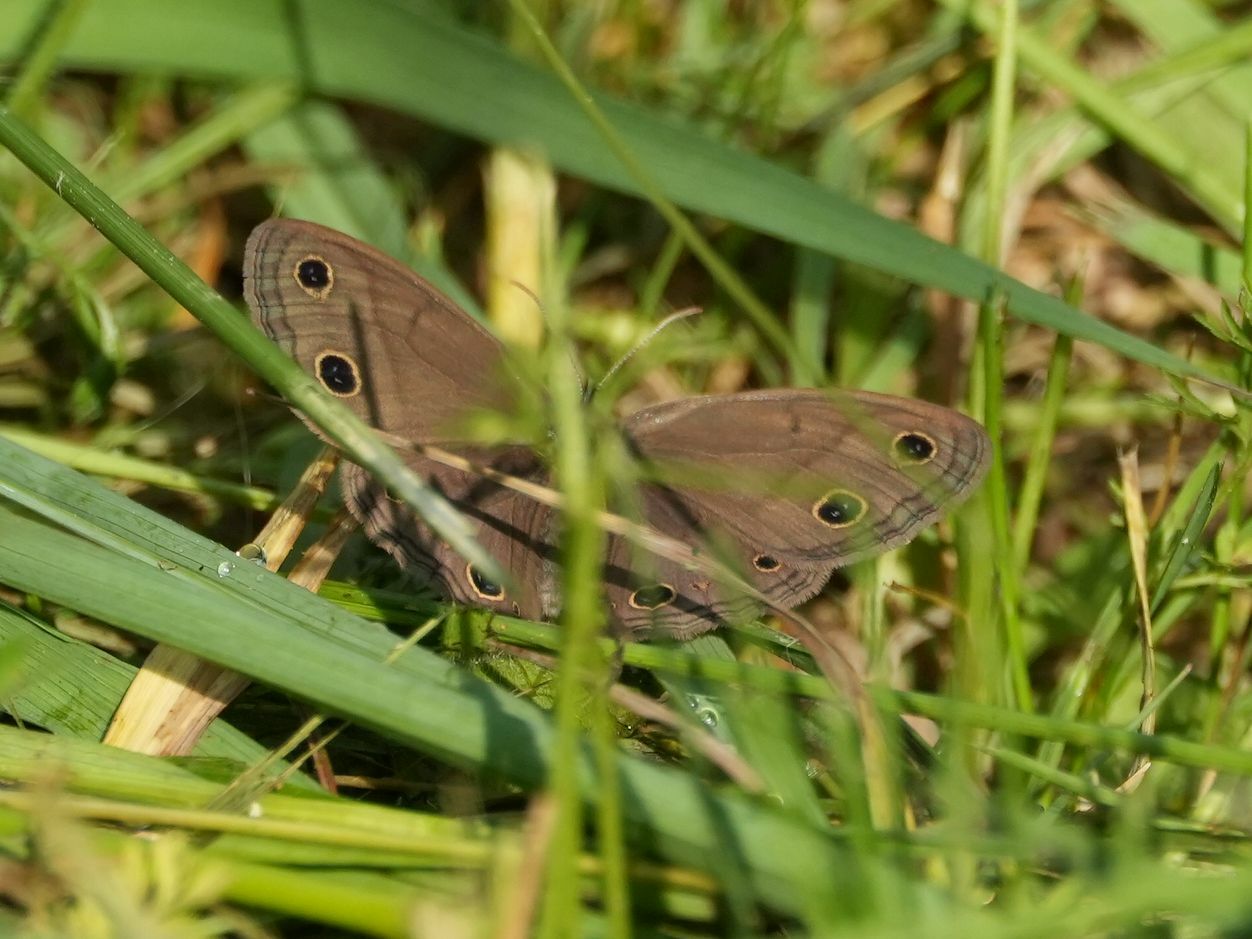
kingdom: Animalia
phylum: Arthropoda
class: Insecta
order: Lepidoptera
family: Nymphalidae
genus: Euptychia
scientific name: Euptychia cymela
